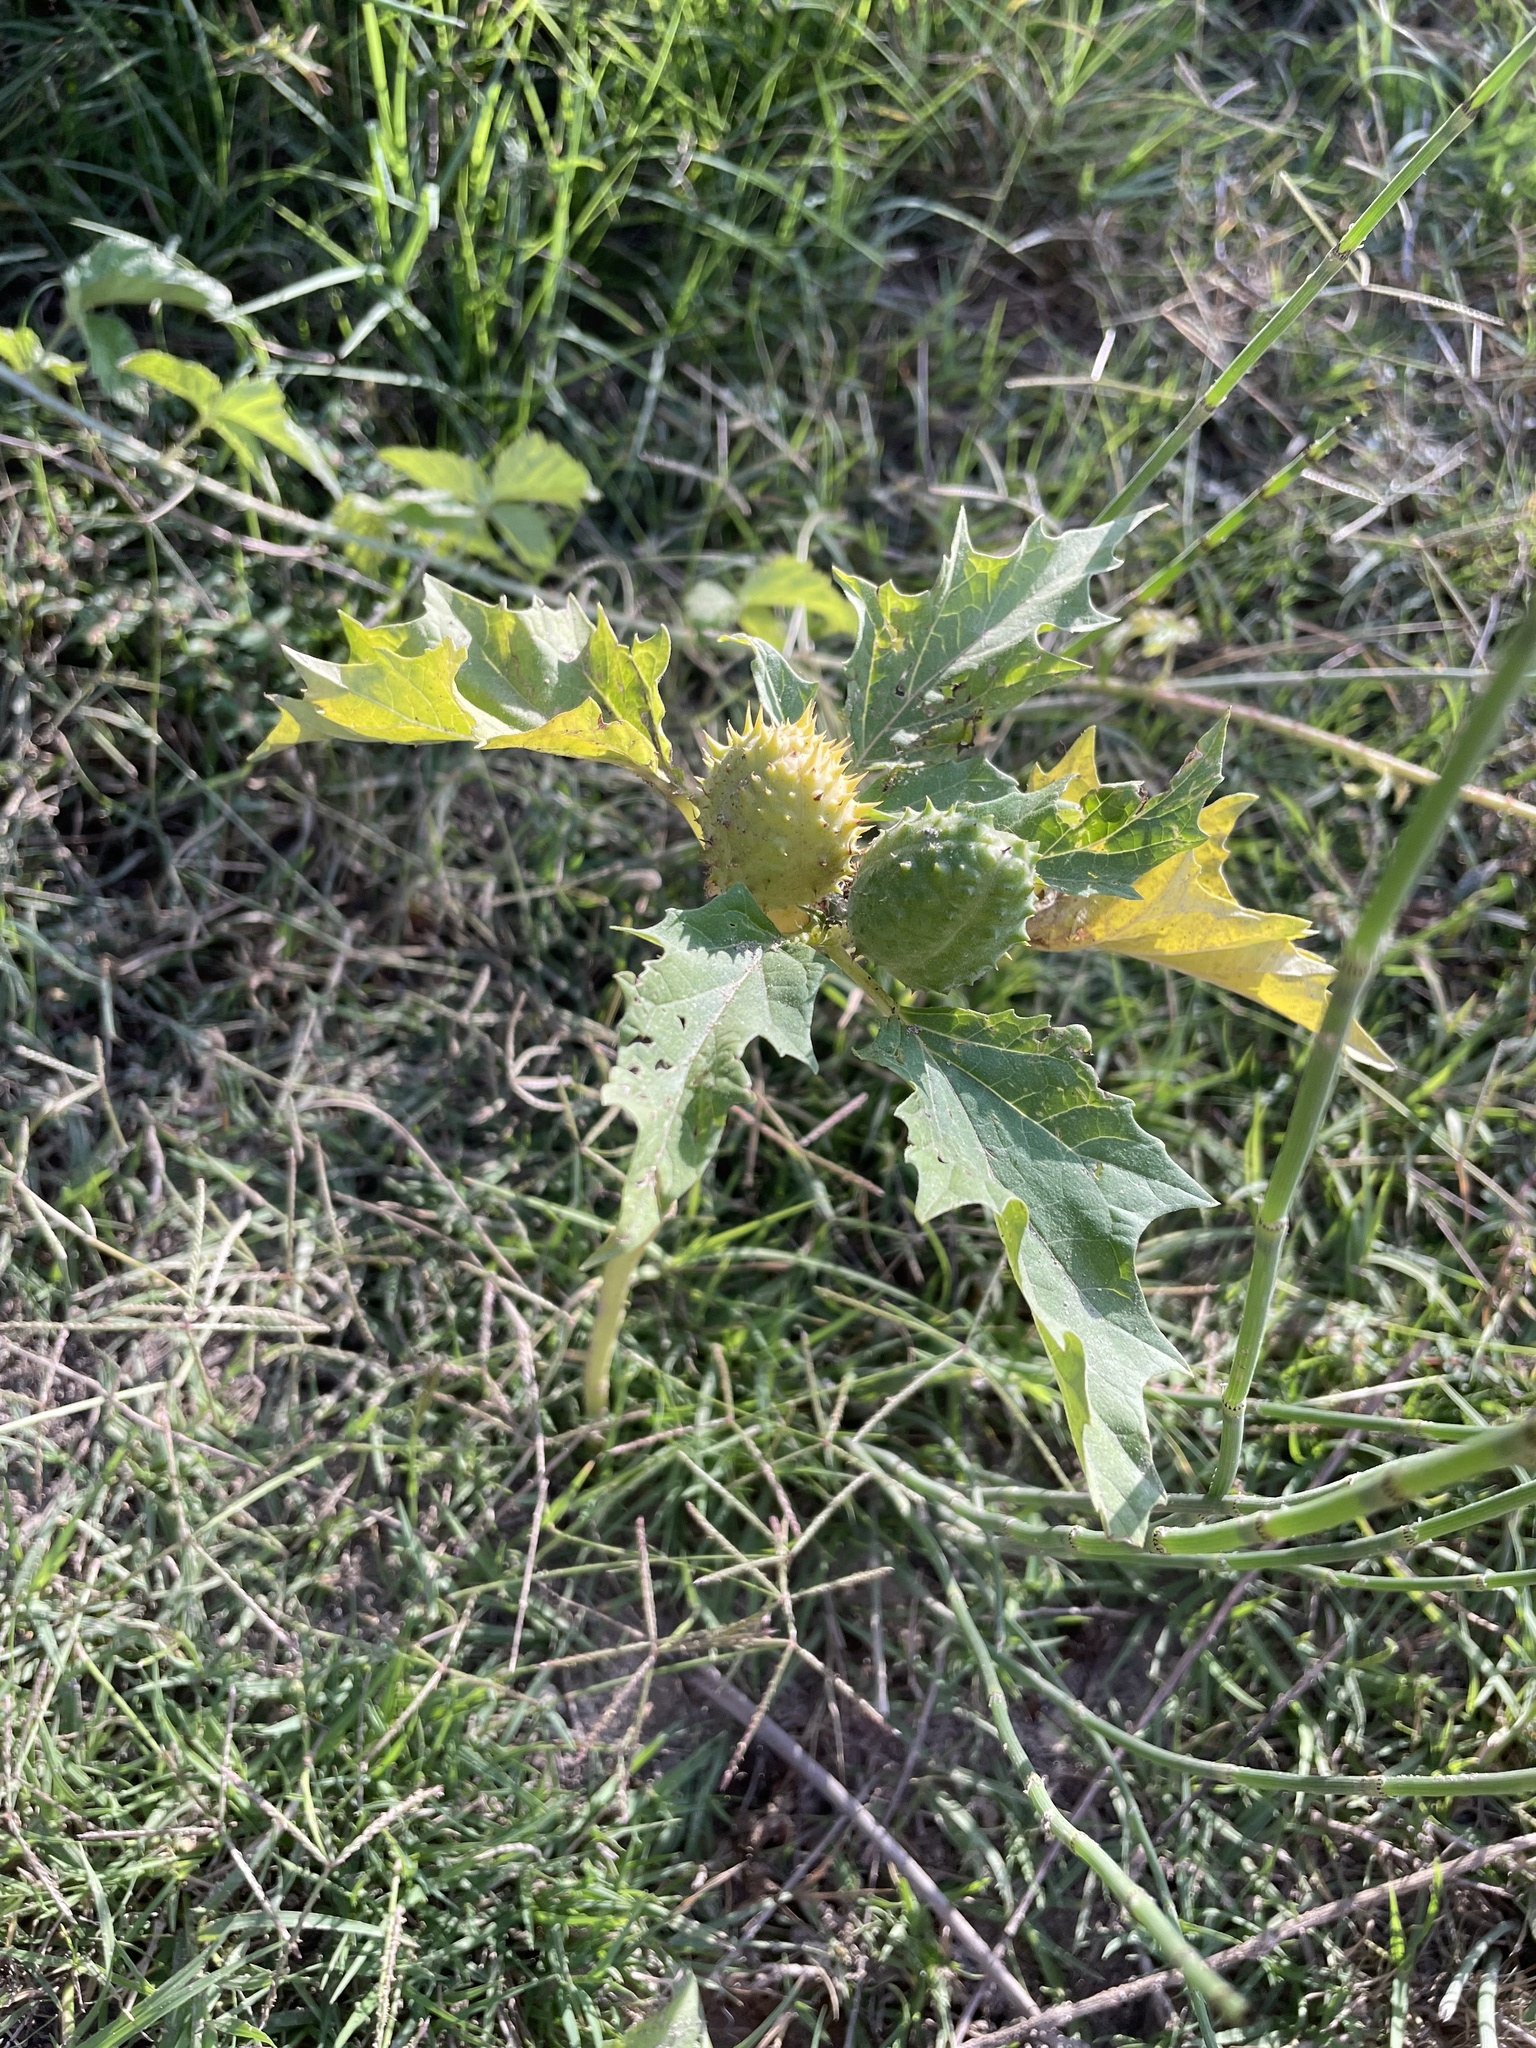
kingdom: Plantae
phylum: Tracheophyta
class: Magnoliopsida
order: Solanales
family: Solanaceae
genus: Datura
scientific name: Datura stramonium
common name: Thorn-apple
